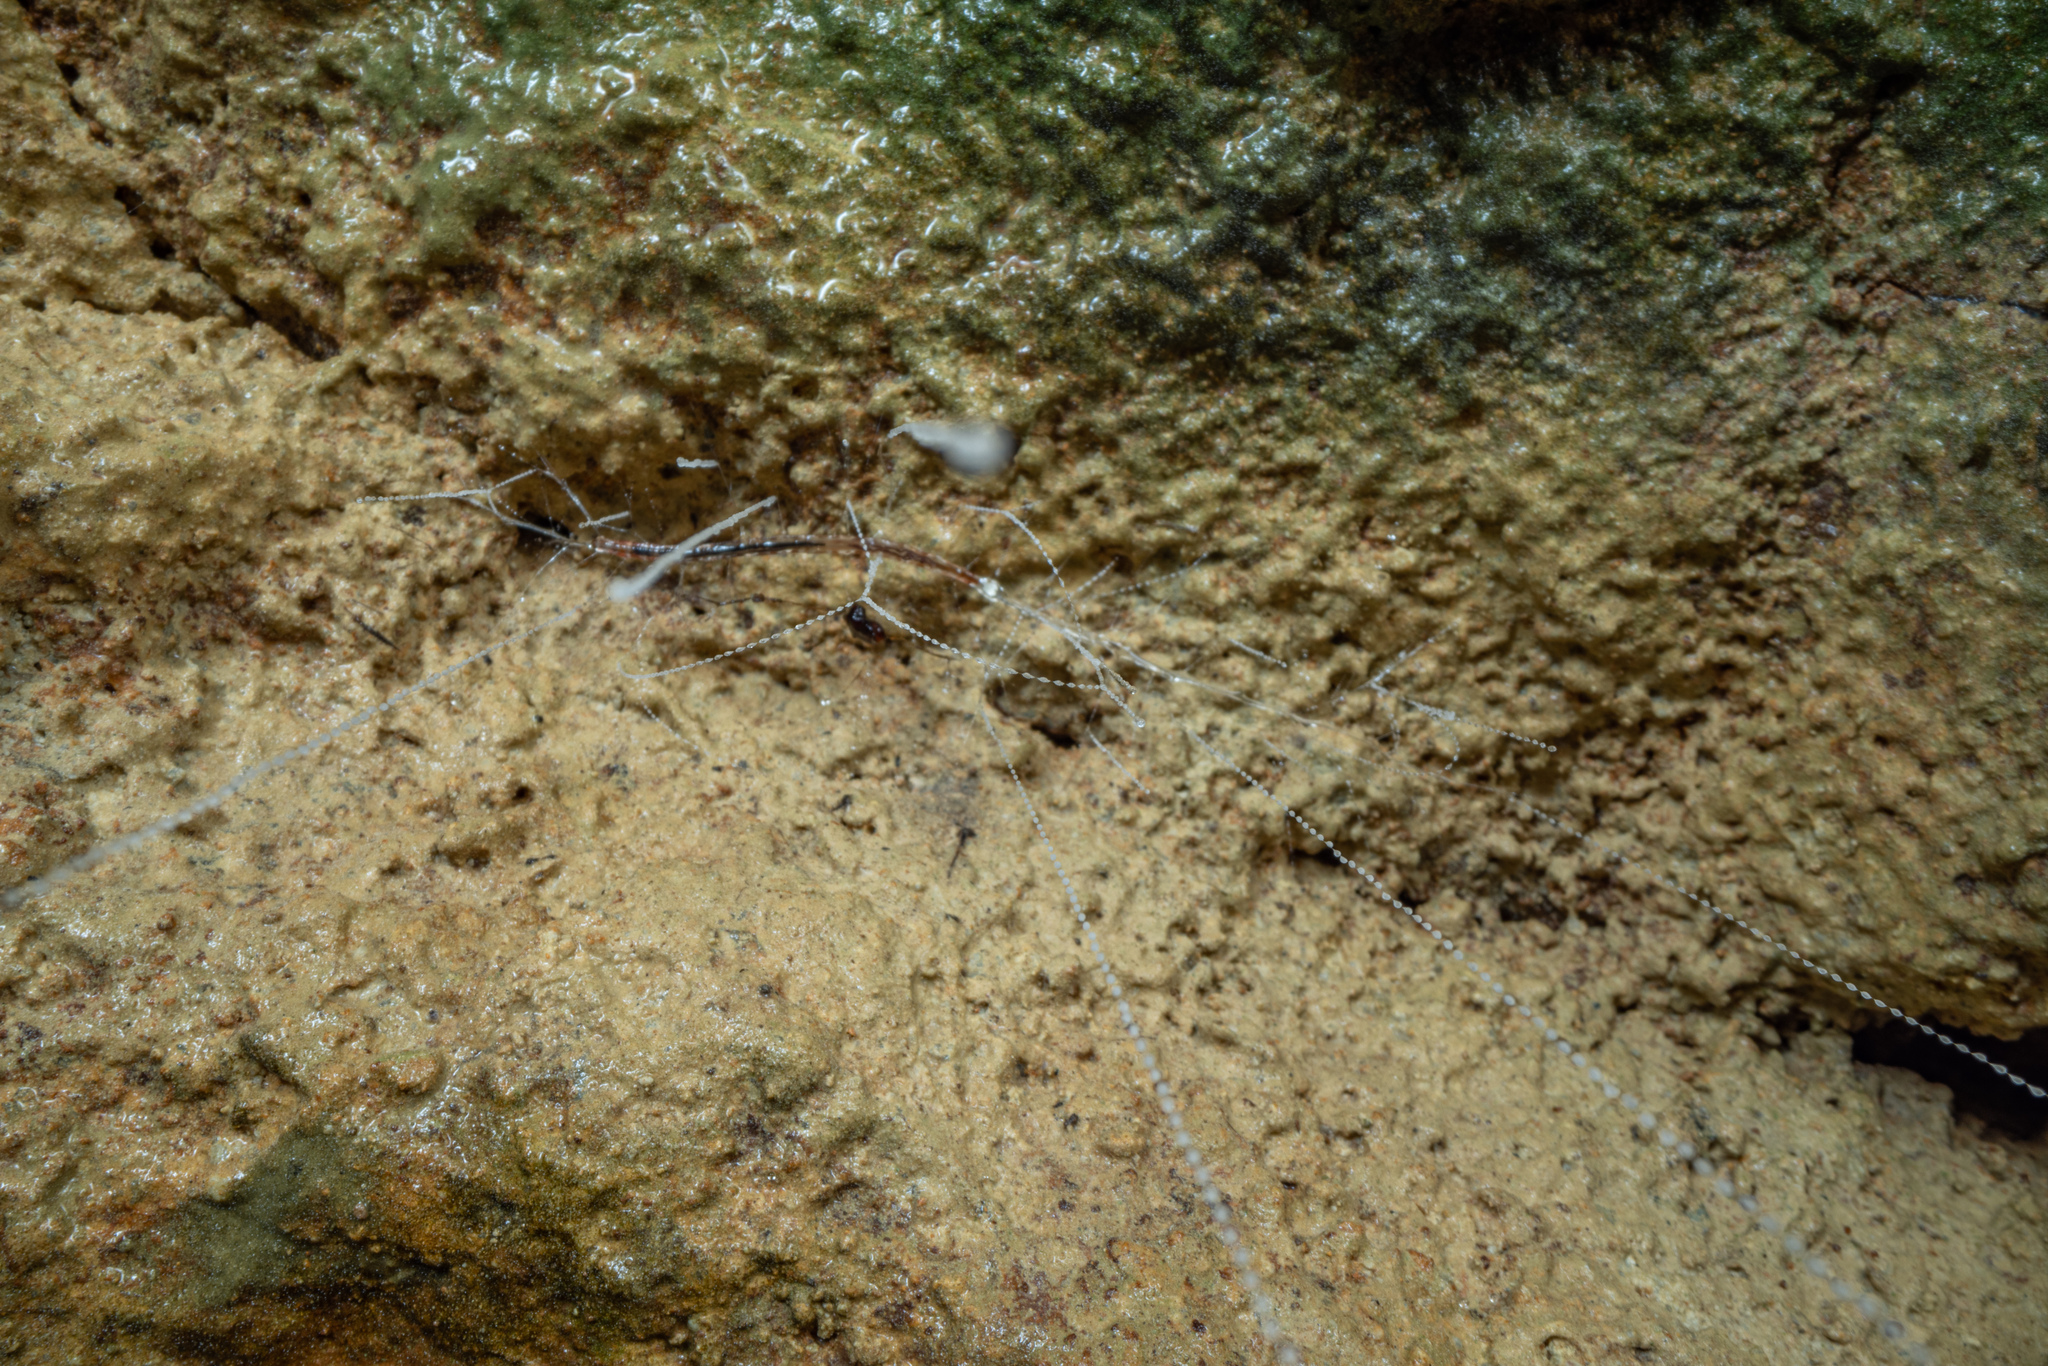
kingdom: Animalia
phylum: Arthropoda
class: Insecta
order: Diptera
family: Keroplatidae
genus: Arachnocampa
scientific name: Arachnocampa luminosa
